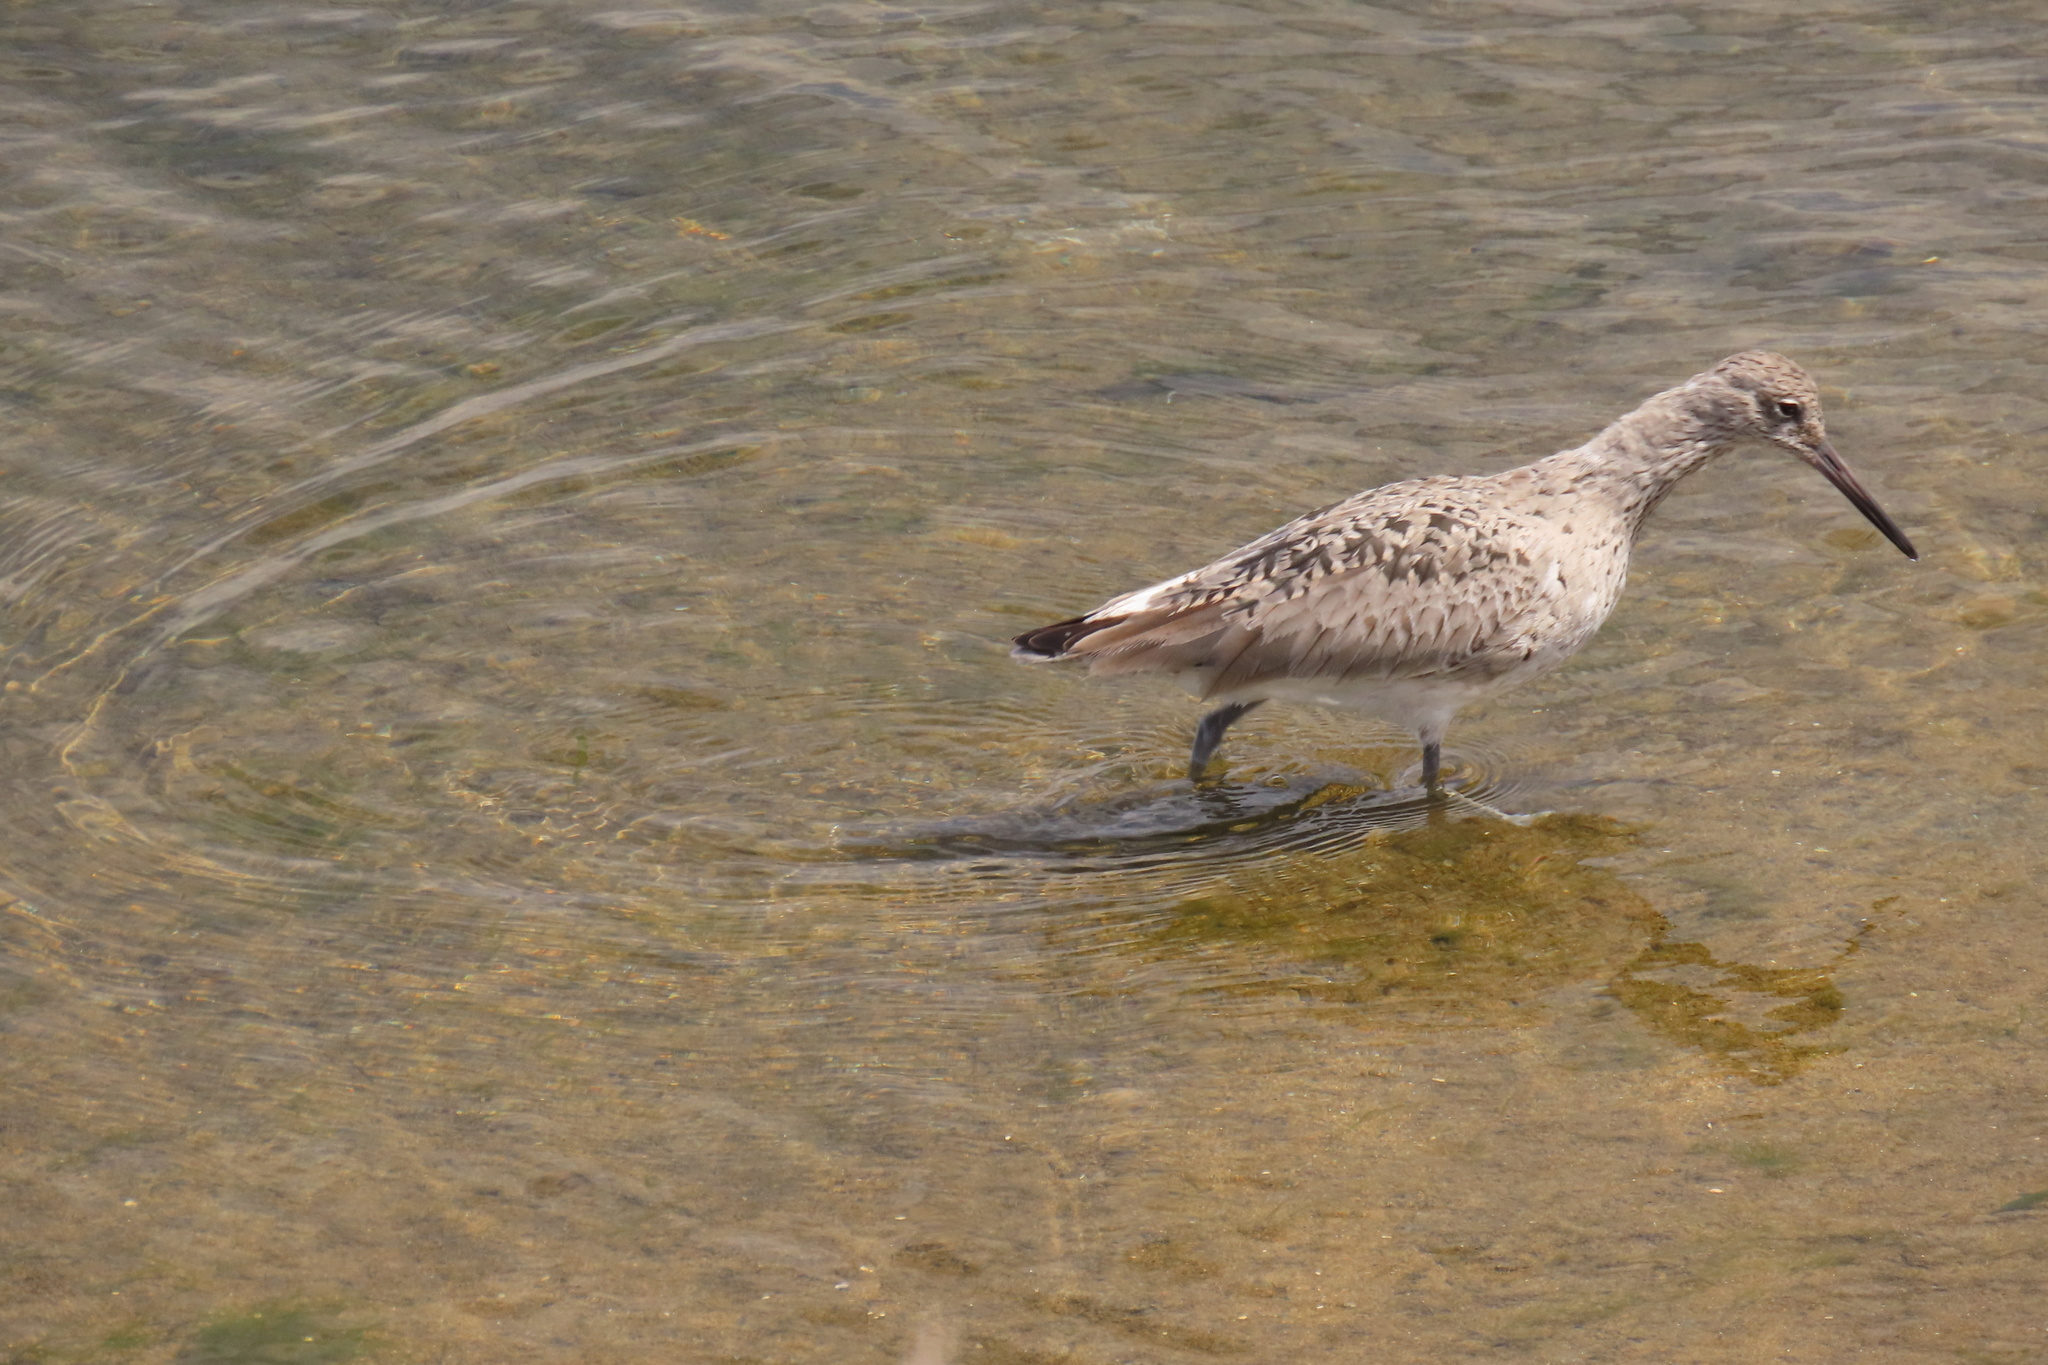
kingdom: Animalia
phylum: Chordata
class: Aves
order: Charadriiformes
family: Scolopacidae
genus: Tringa
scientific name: Tringa semipalmata
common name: Willet
